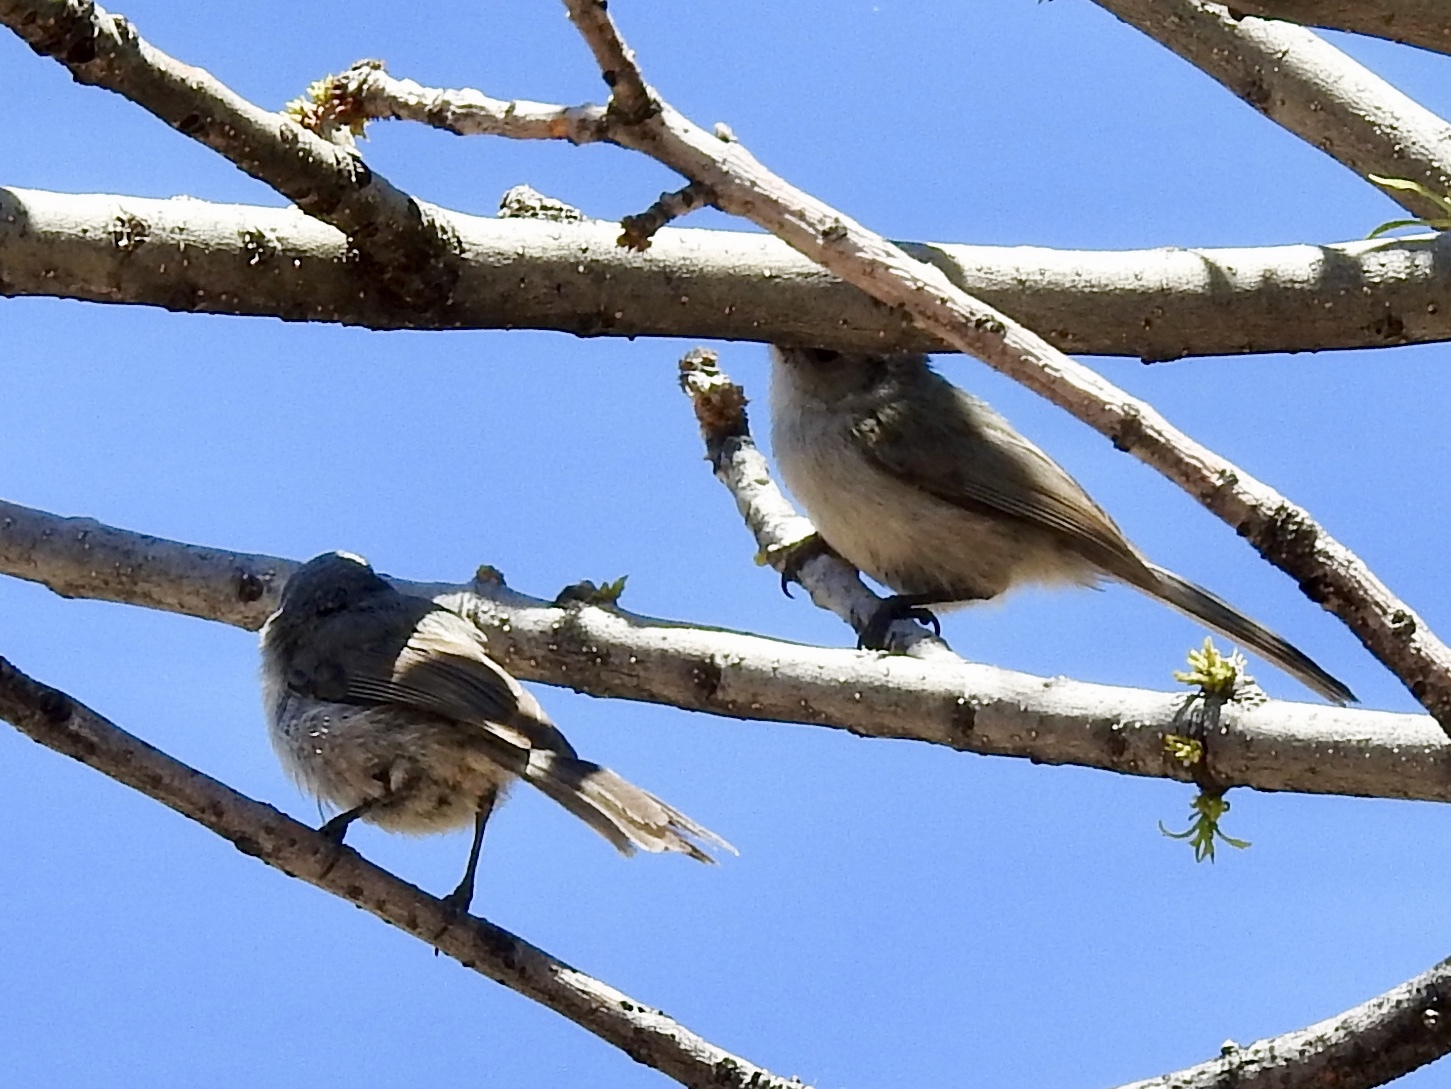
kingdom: Animalia
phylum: Chordata
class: Aves
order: Passeriformes
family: Aegithalidae
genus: Psaltriparus
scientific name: Psaltriparus minimus
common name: American bushtit
